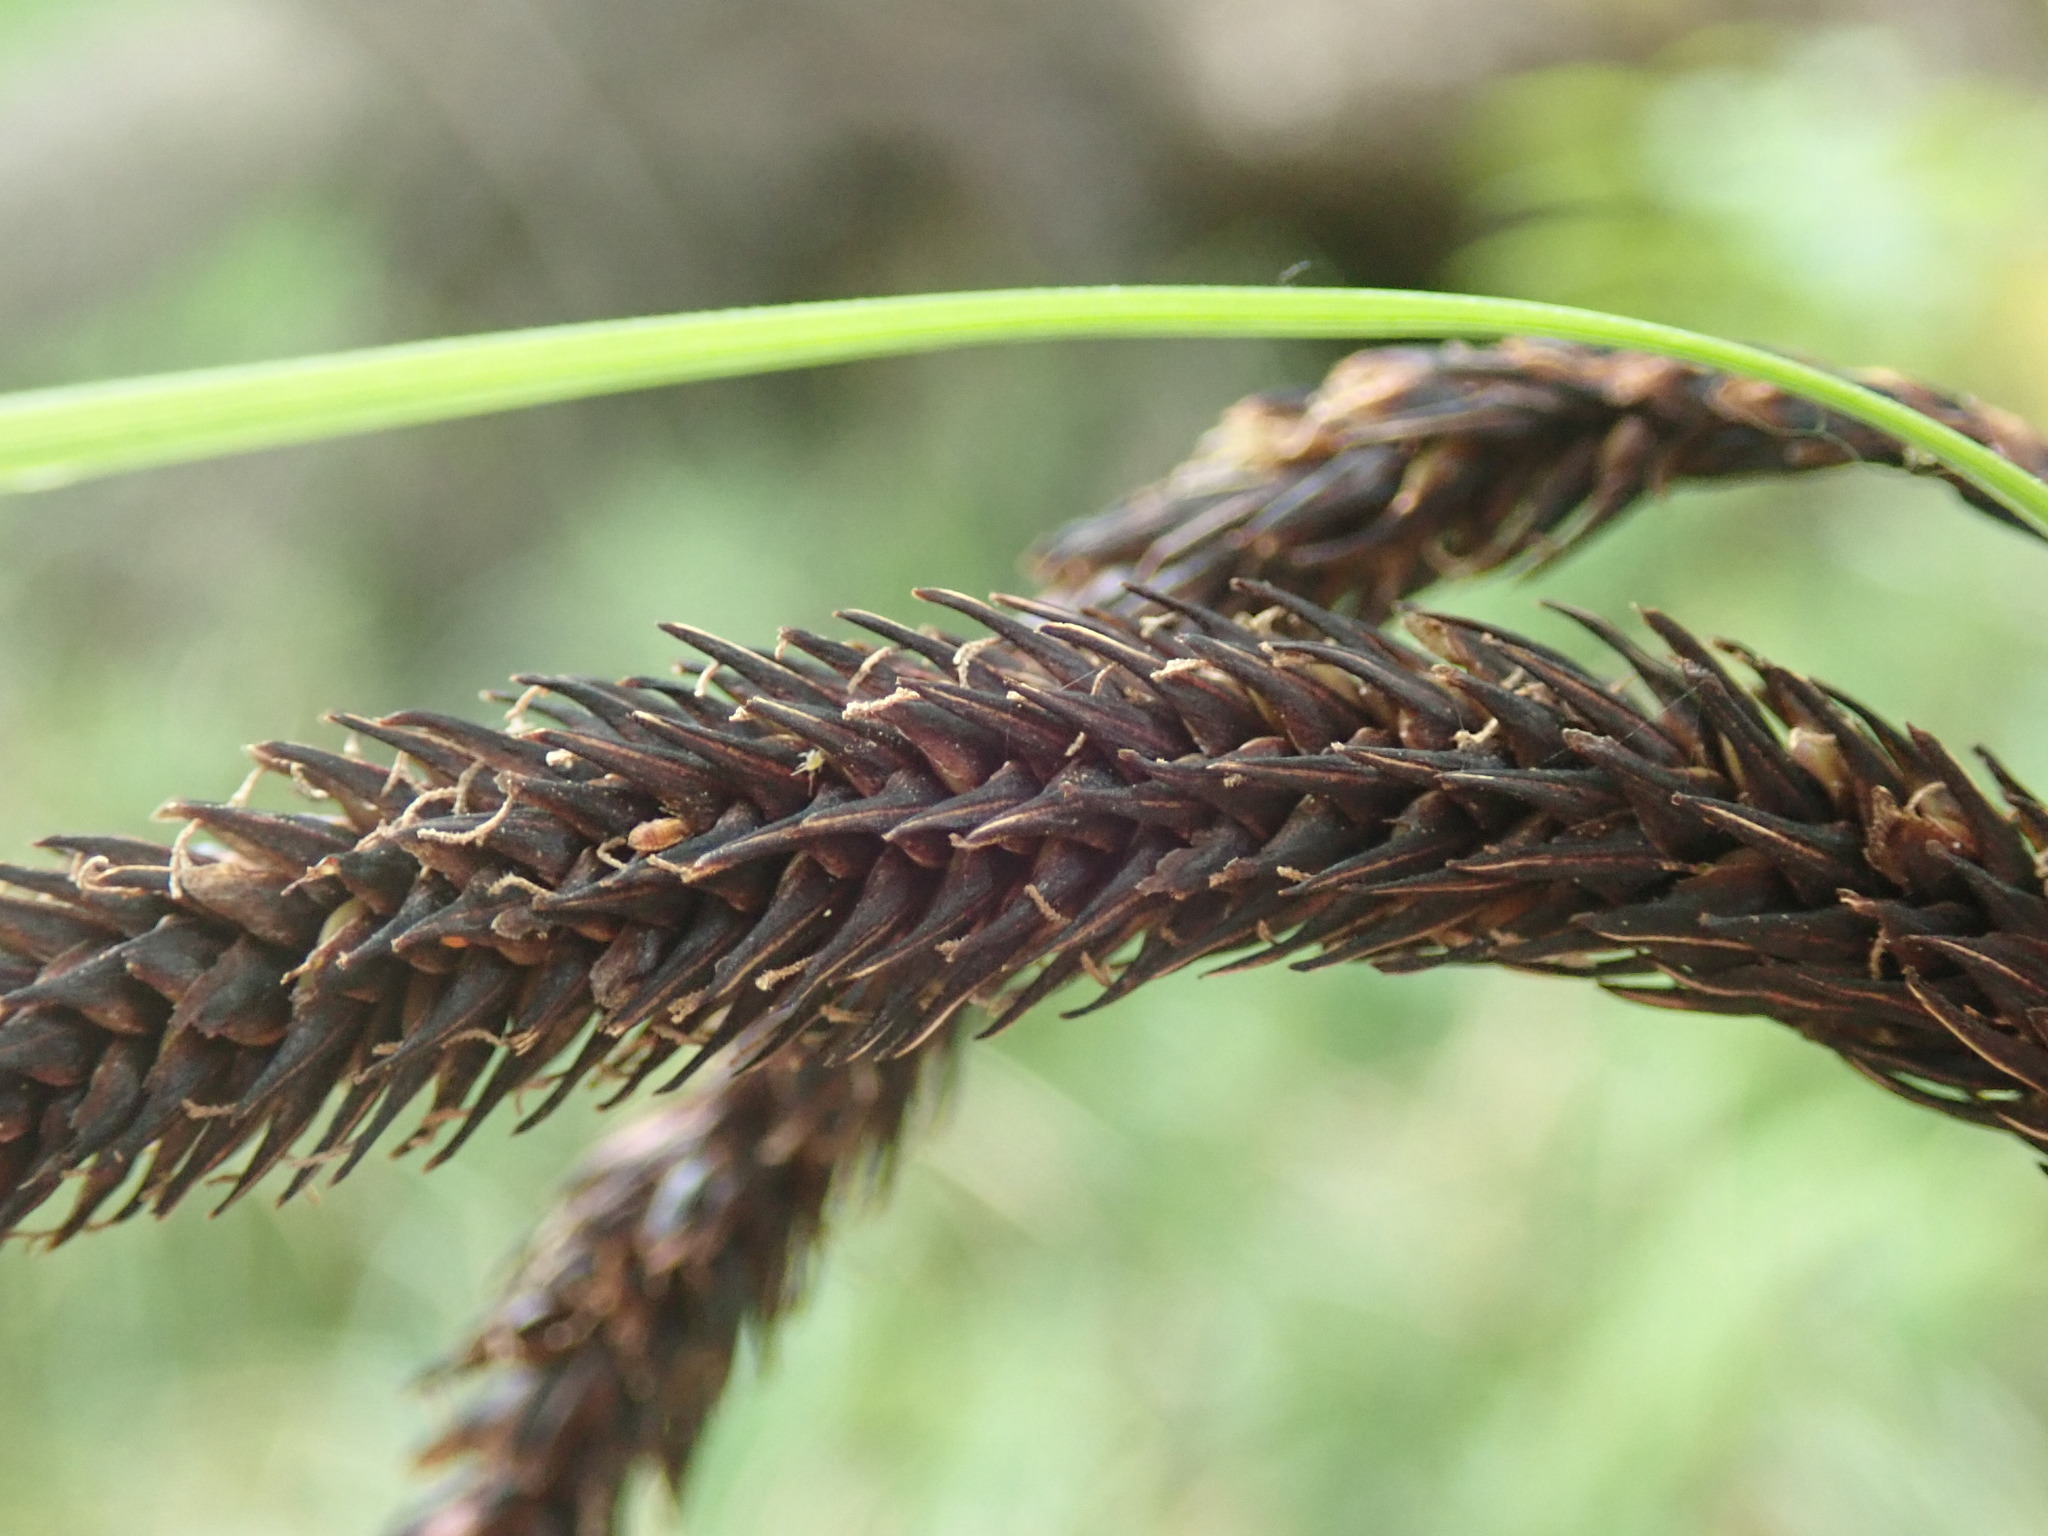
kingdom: Plantae
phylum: Tracheophyta
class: Liliopsida
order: Poales
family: Cyperaceae
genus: Carex
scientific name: Carex obnupta
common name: Slough sedge
